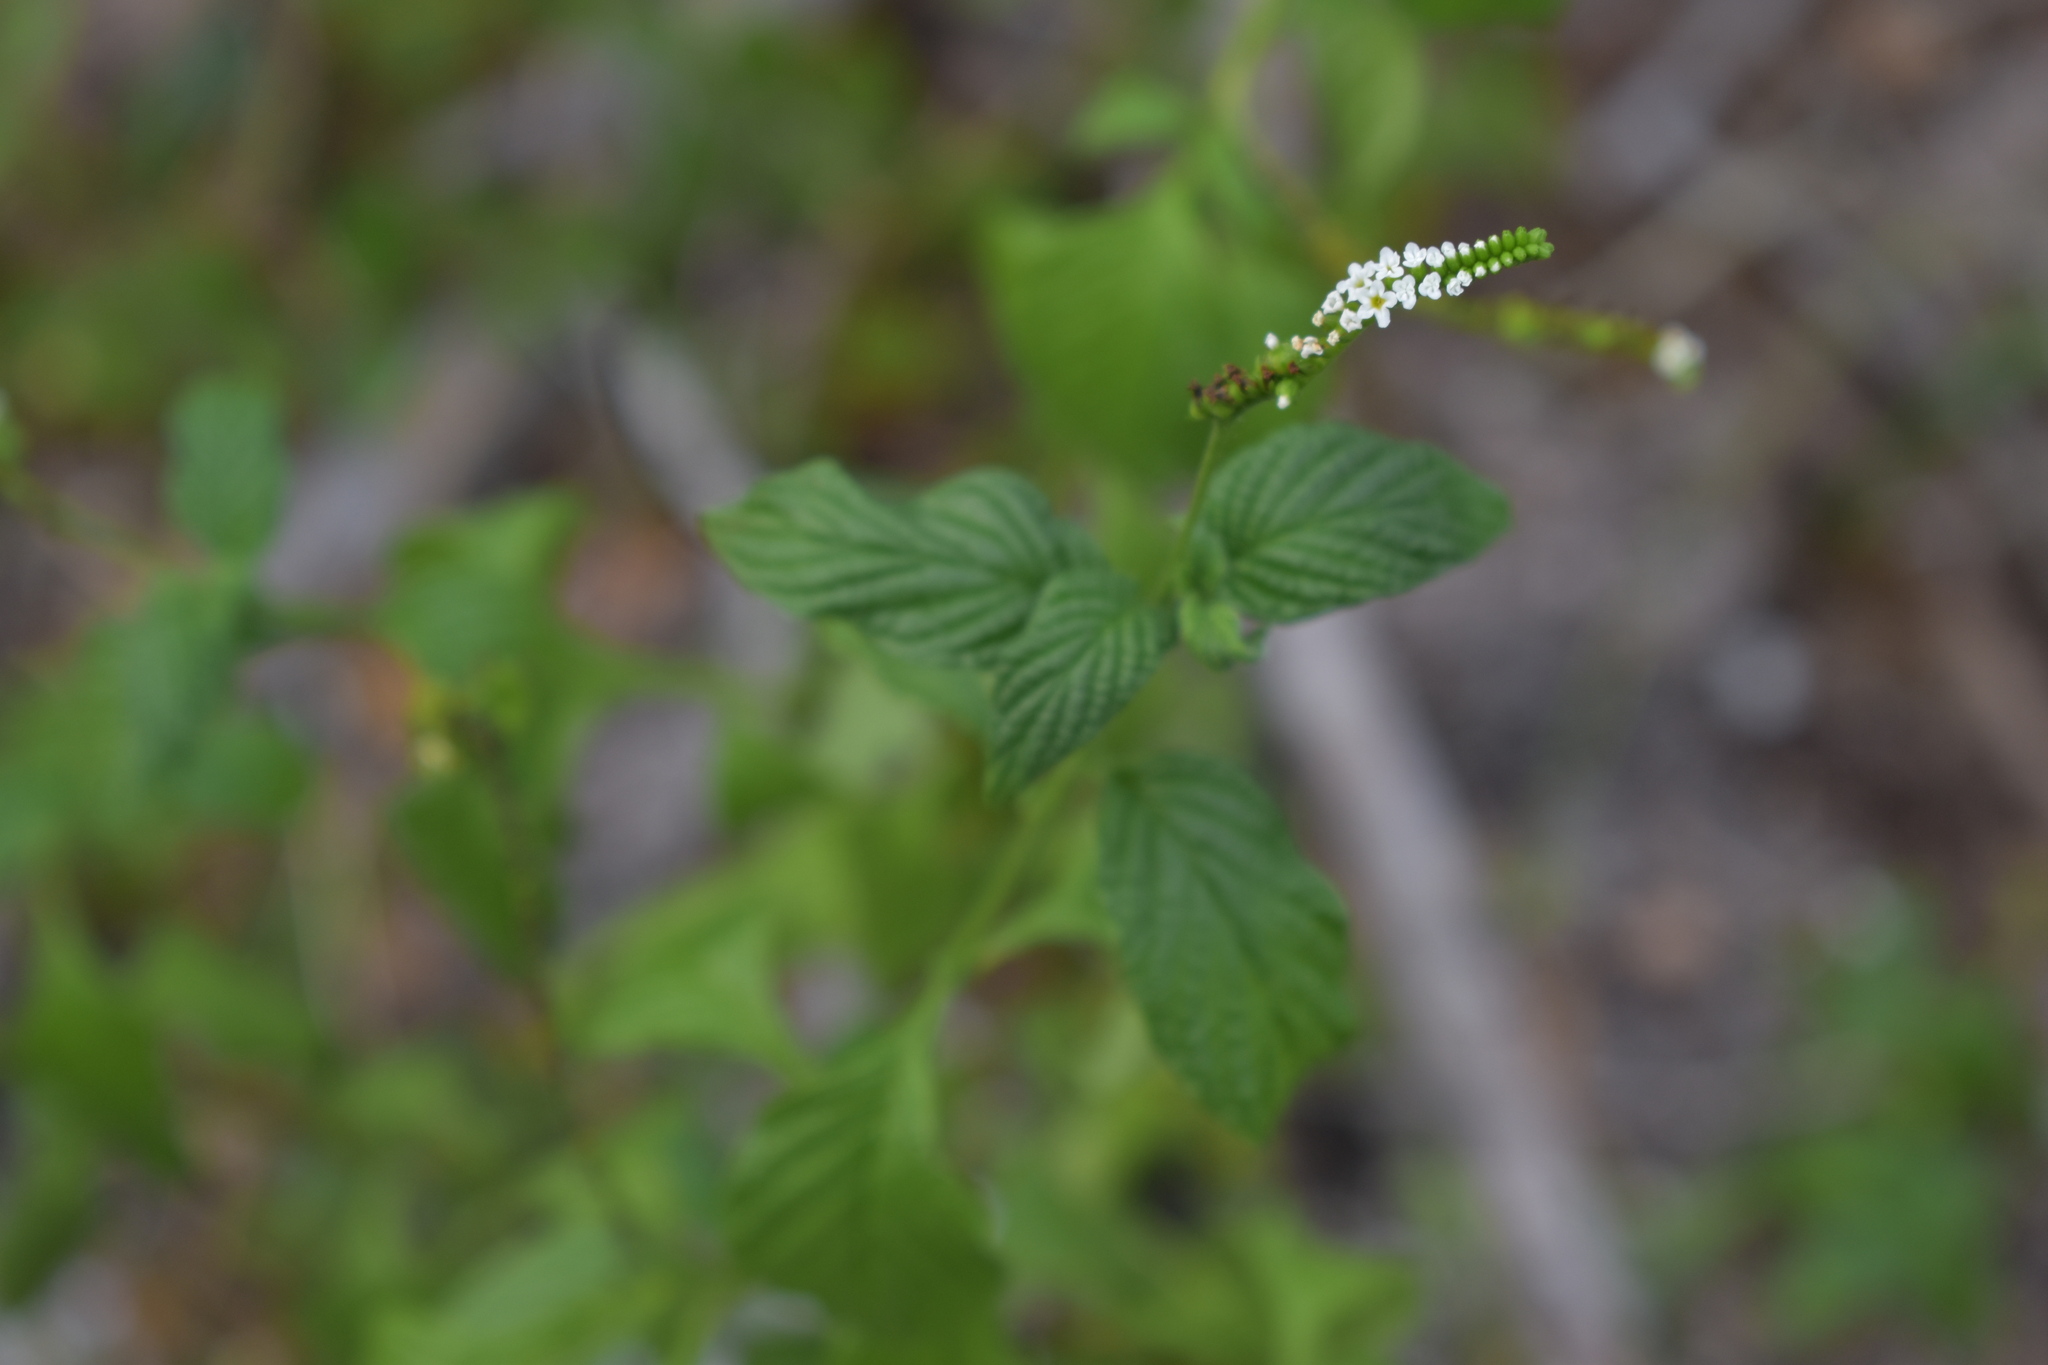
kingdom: Plantae
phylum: Tracheophyta
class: Magnoliopsida
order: Boraginales
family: Heliotropiaceae
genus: Heliotropium
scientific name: Heliotropium angiospermum
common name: Eye bright
